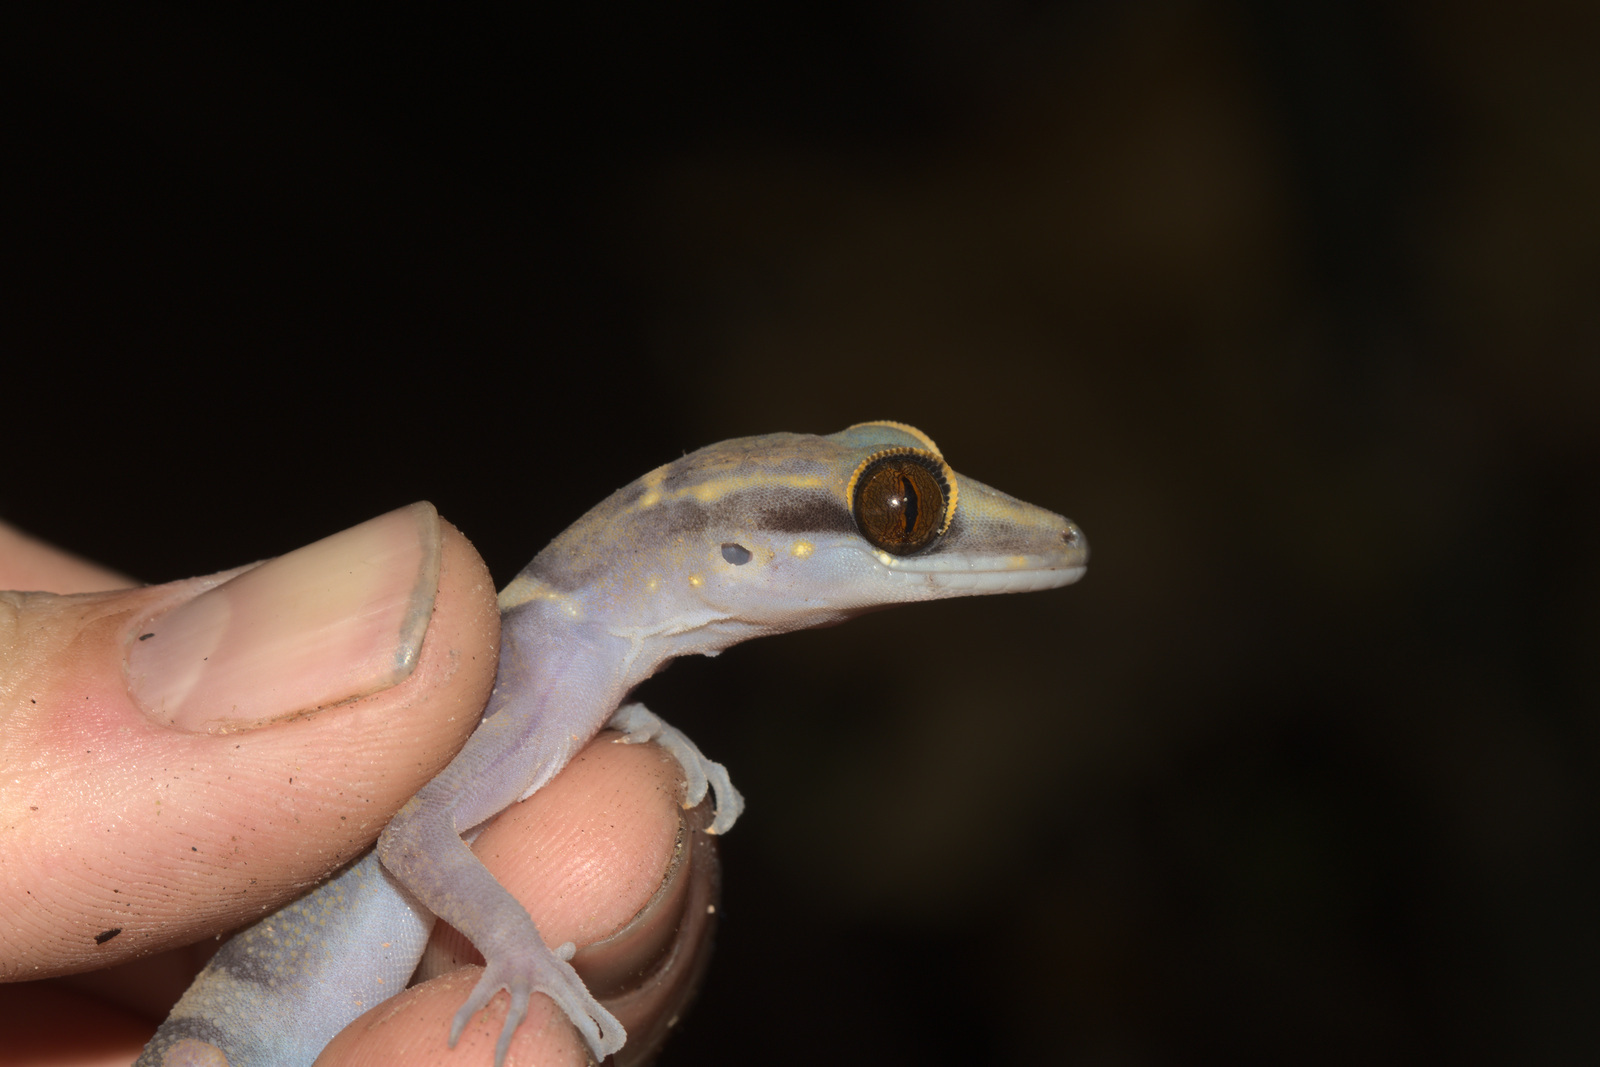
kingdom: Animalia
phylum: Chordata
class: Squamata
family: Gekkonidae
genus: Cyrtodactylus
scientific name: Cyrtodactylus tiomanensis
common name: Tioman island bent-toed gecko
